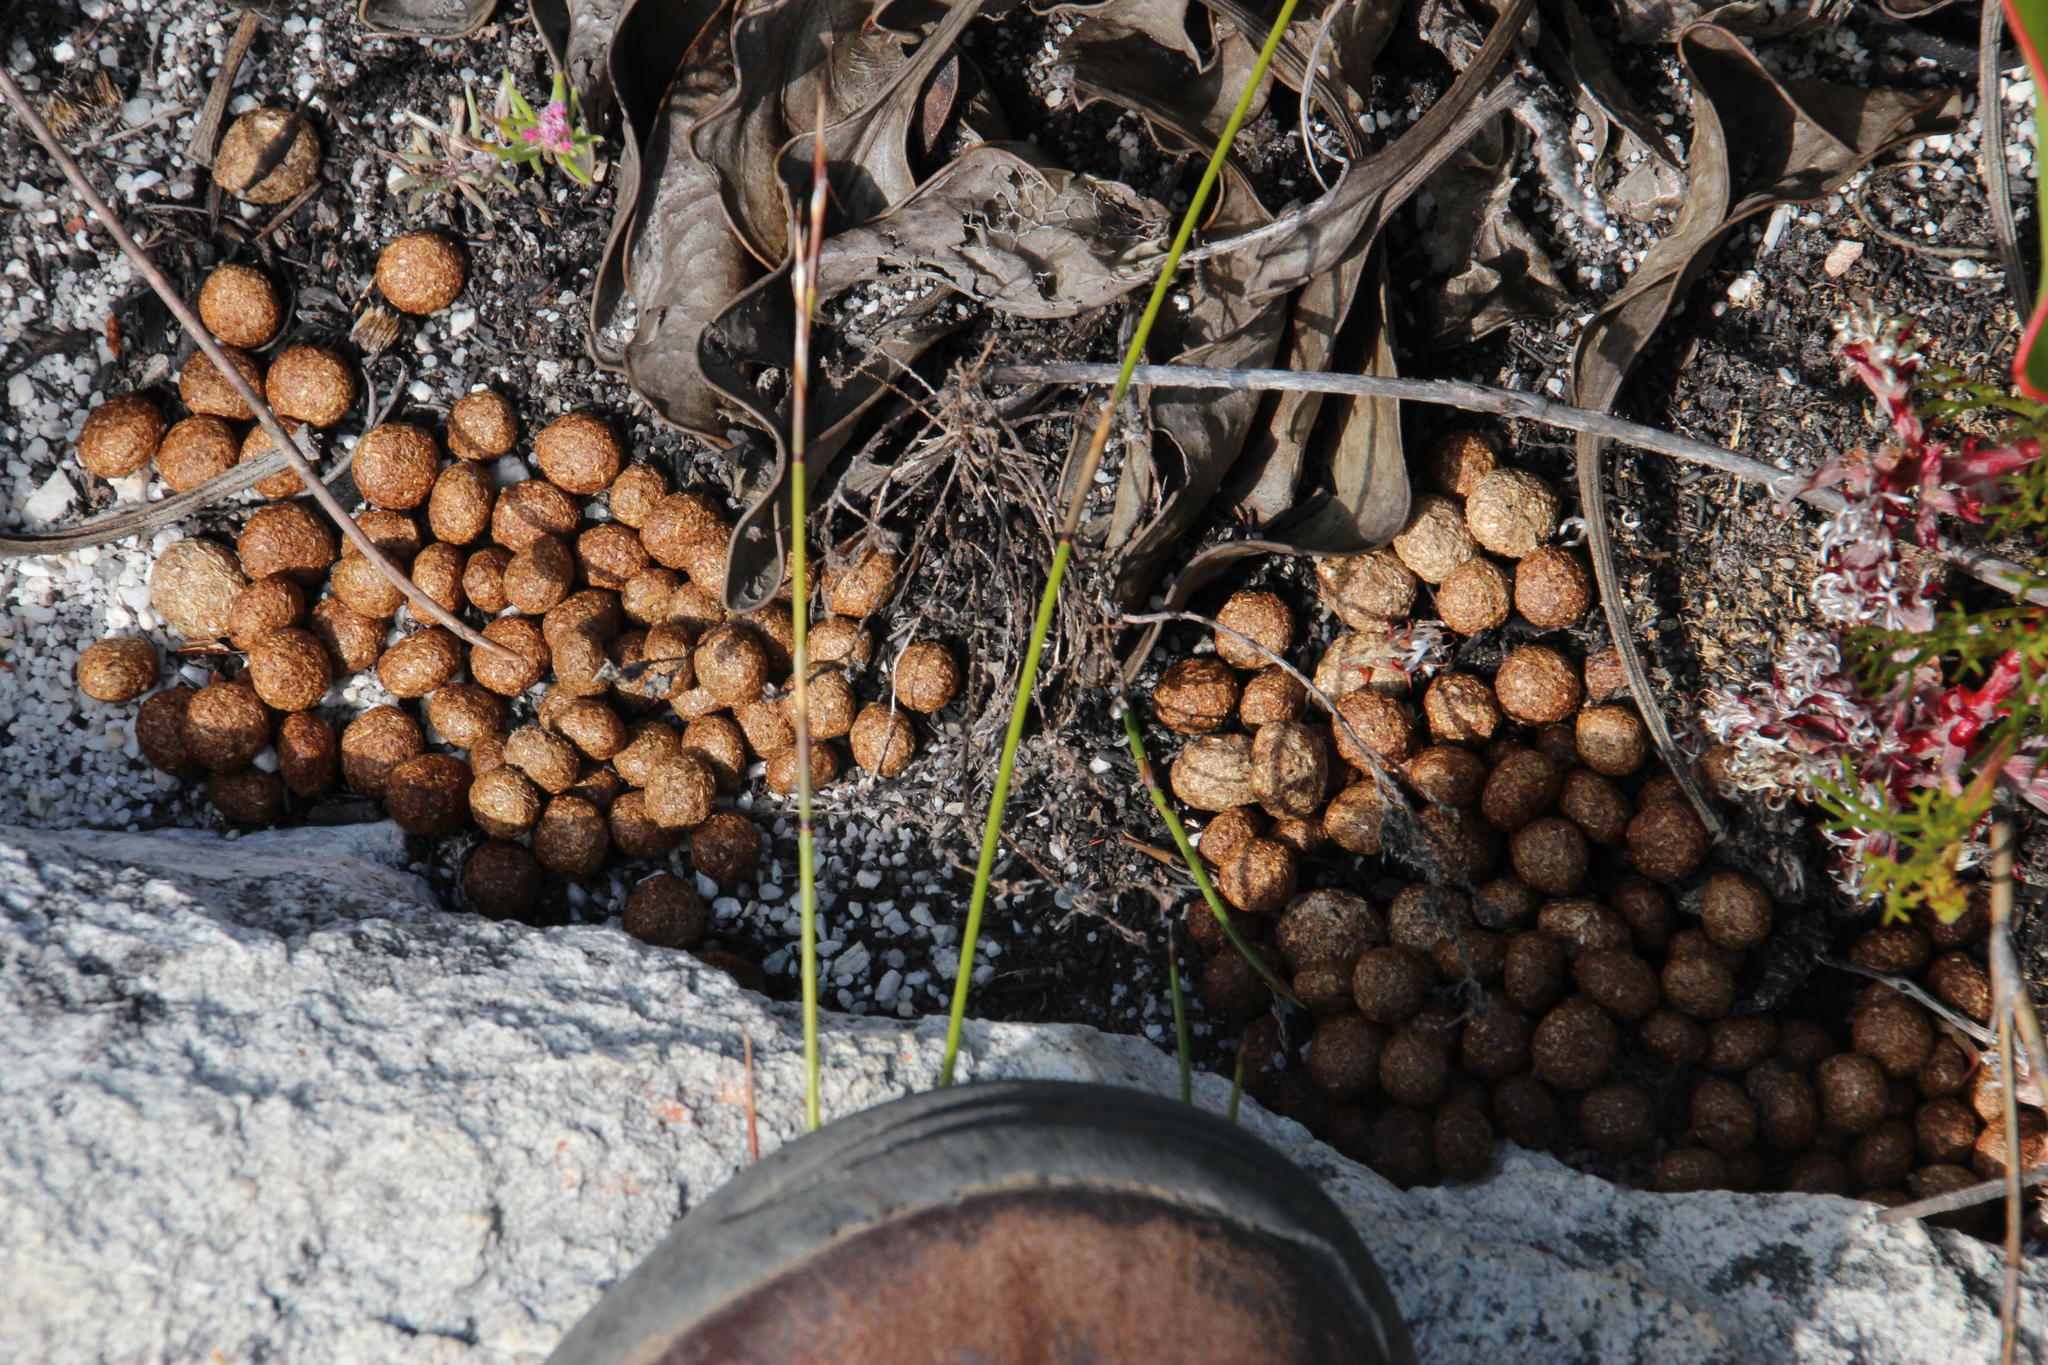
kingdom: Animalia
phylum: Chordata
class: Mammalia
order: Lagomorpha
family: Leporidae
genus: Pronolagus
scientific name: Pronolagus saundersiae
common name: Hewitt's red rock hare
